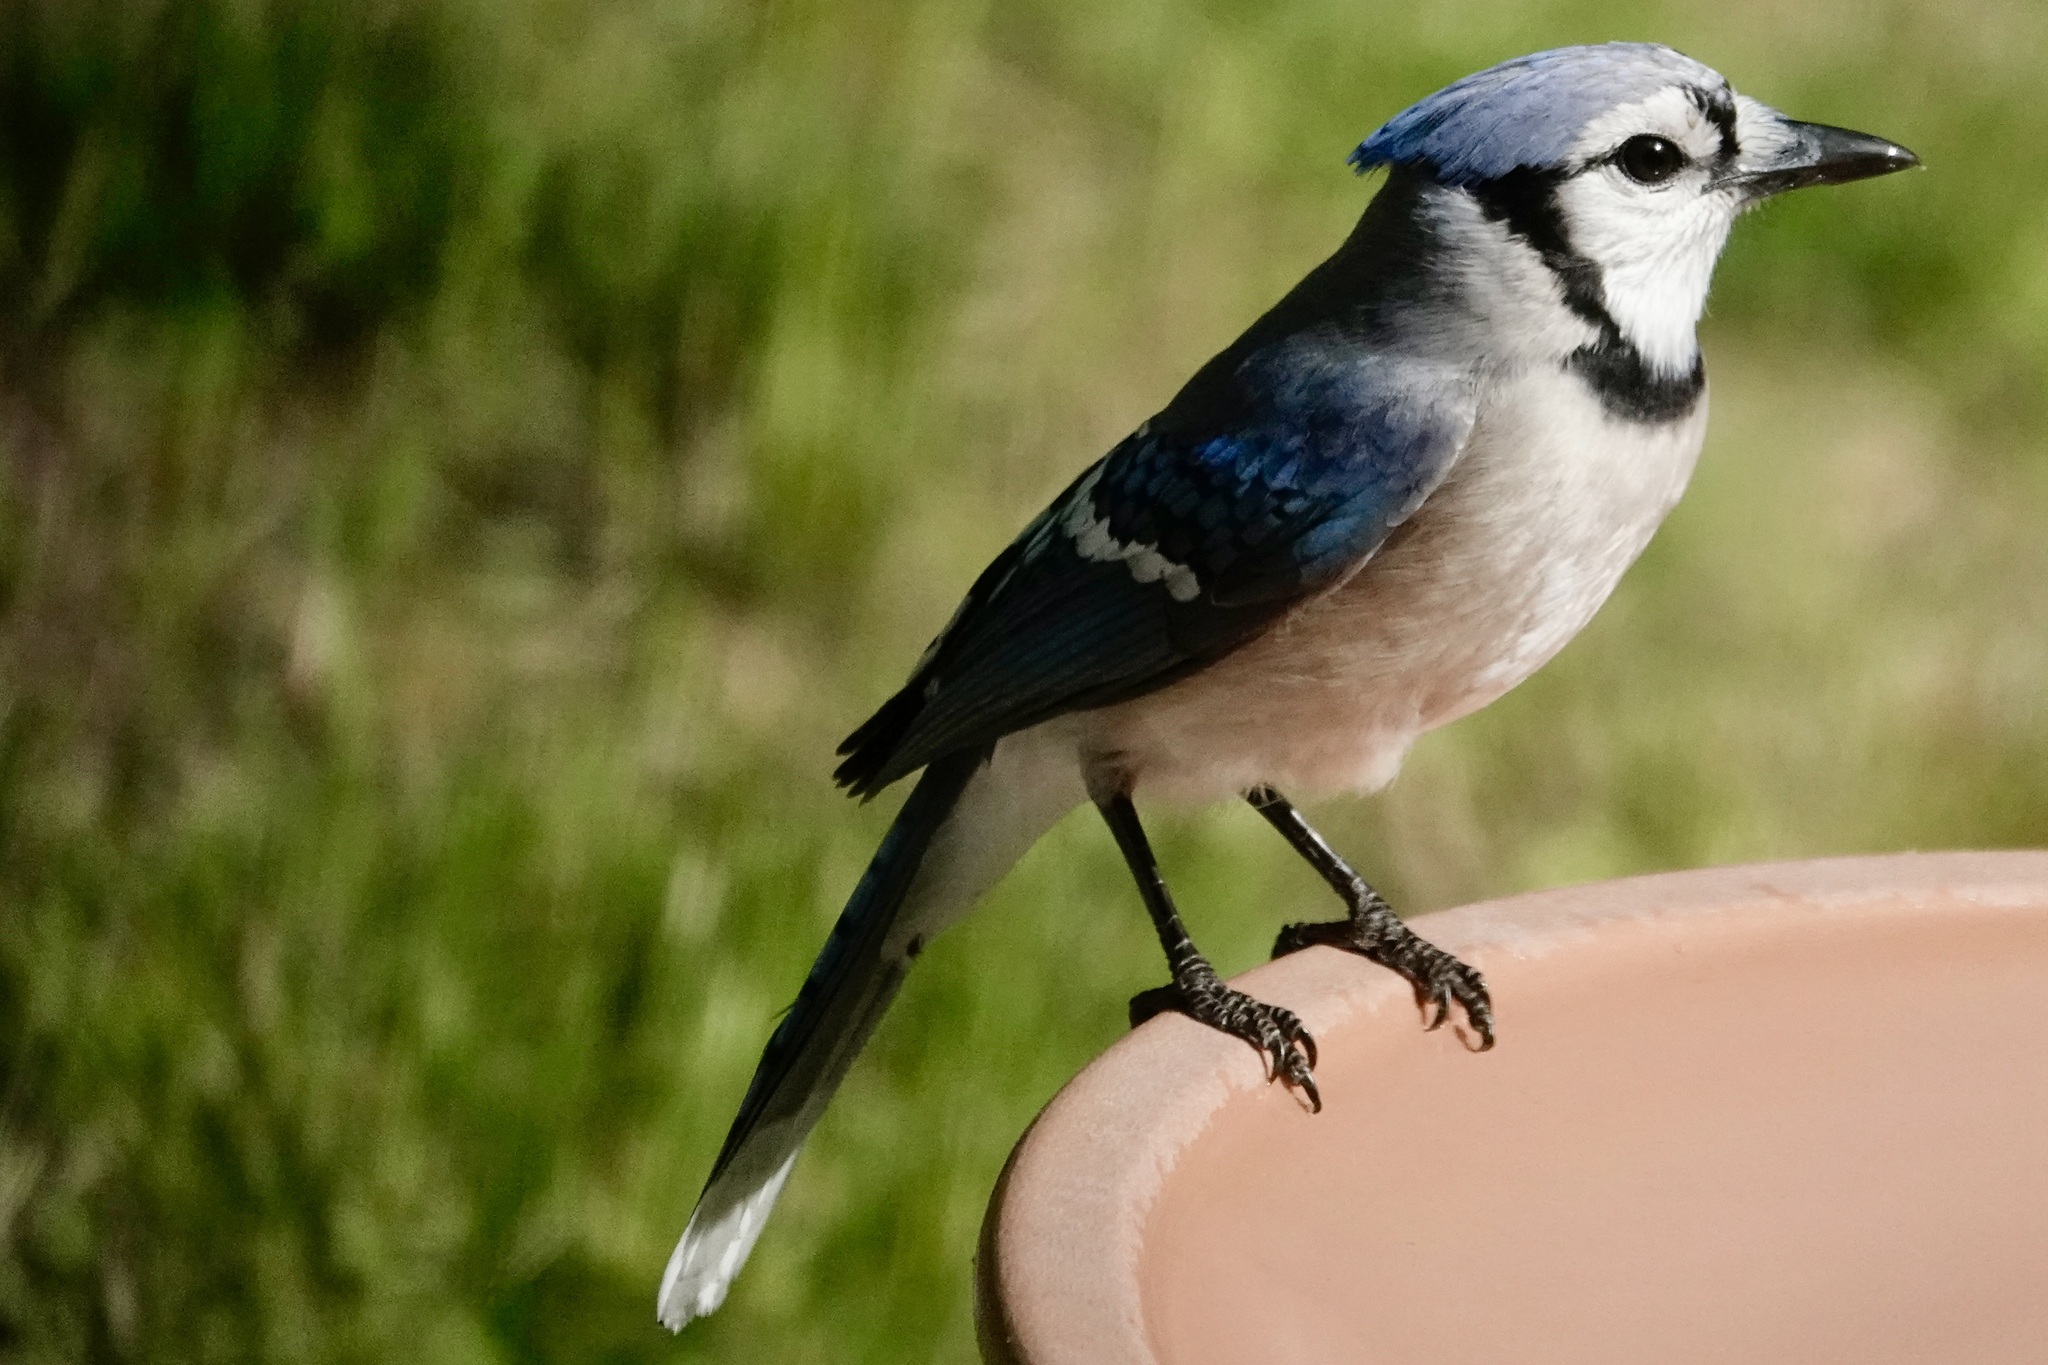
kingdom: Animalia
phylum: Chordata
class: Aves
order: Passeriformes
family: Corvidae
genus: Cyanocitta
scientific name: Cyanocitta cristata
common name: Blue jay
